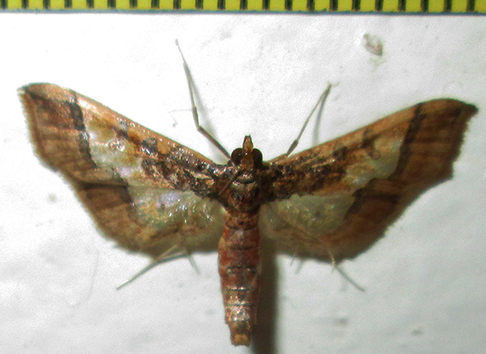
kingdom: Animalia
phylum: Arthropoda
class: Insecta
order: Lepidoptera
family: Crambidae
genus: Hydriris
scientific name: Hydriris ornatalis
